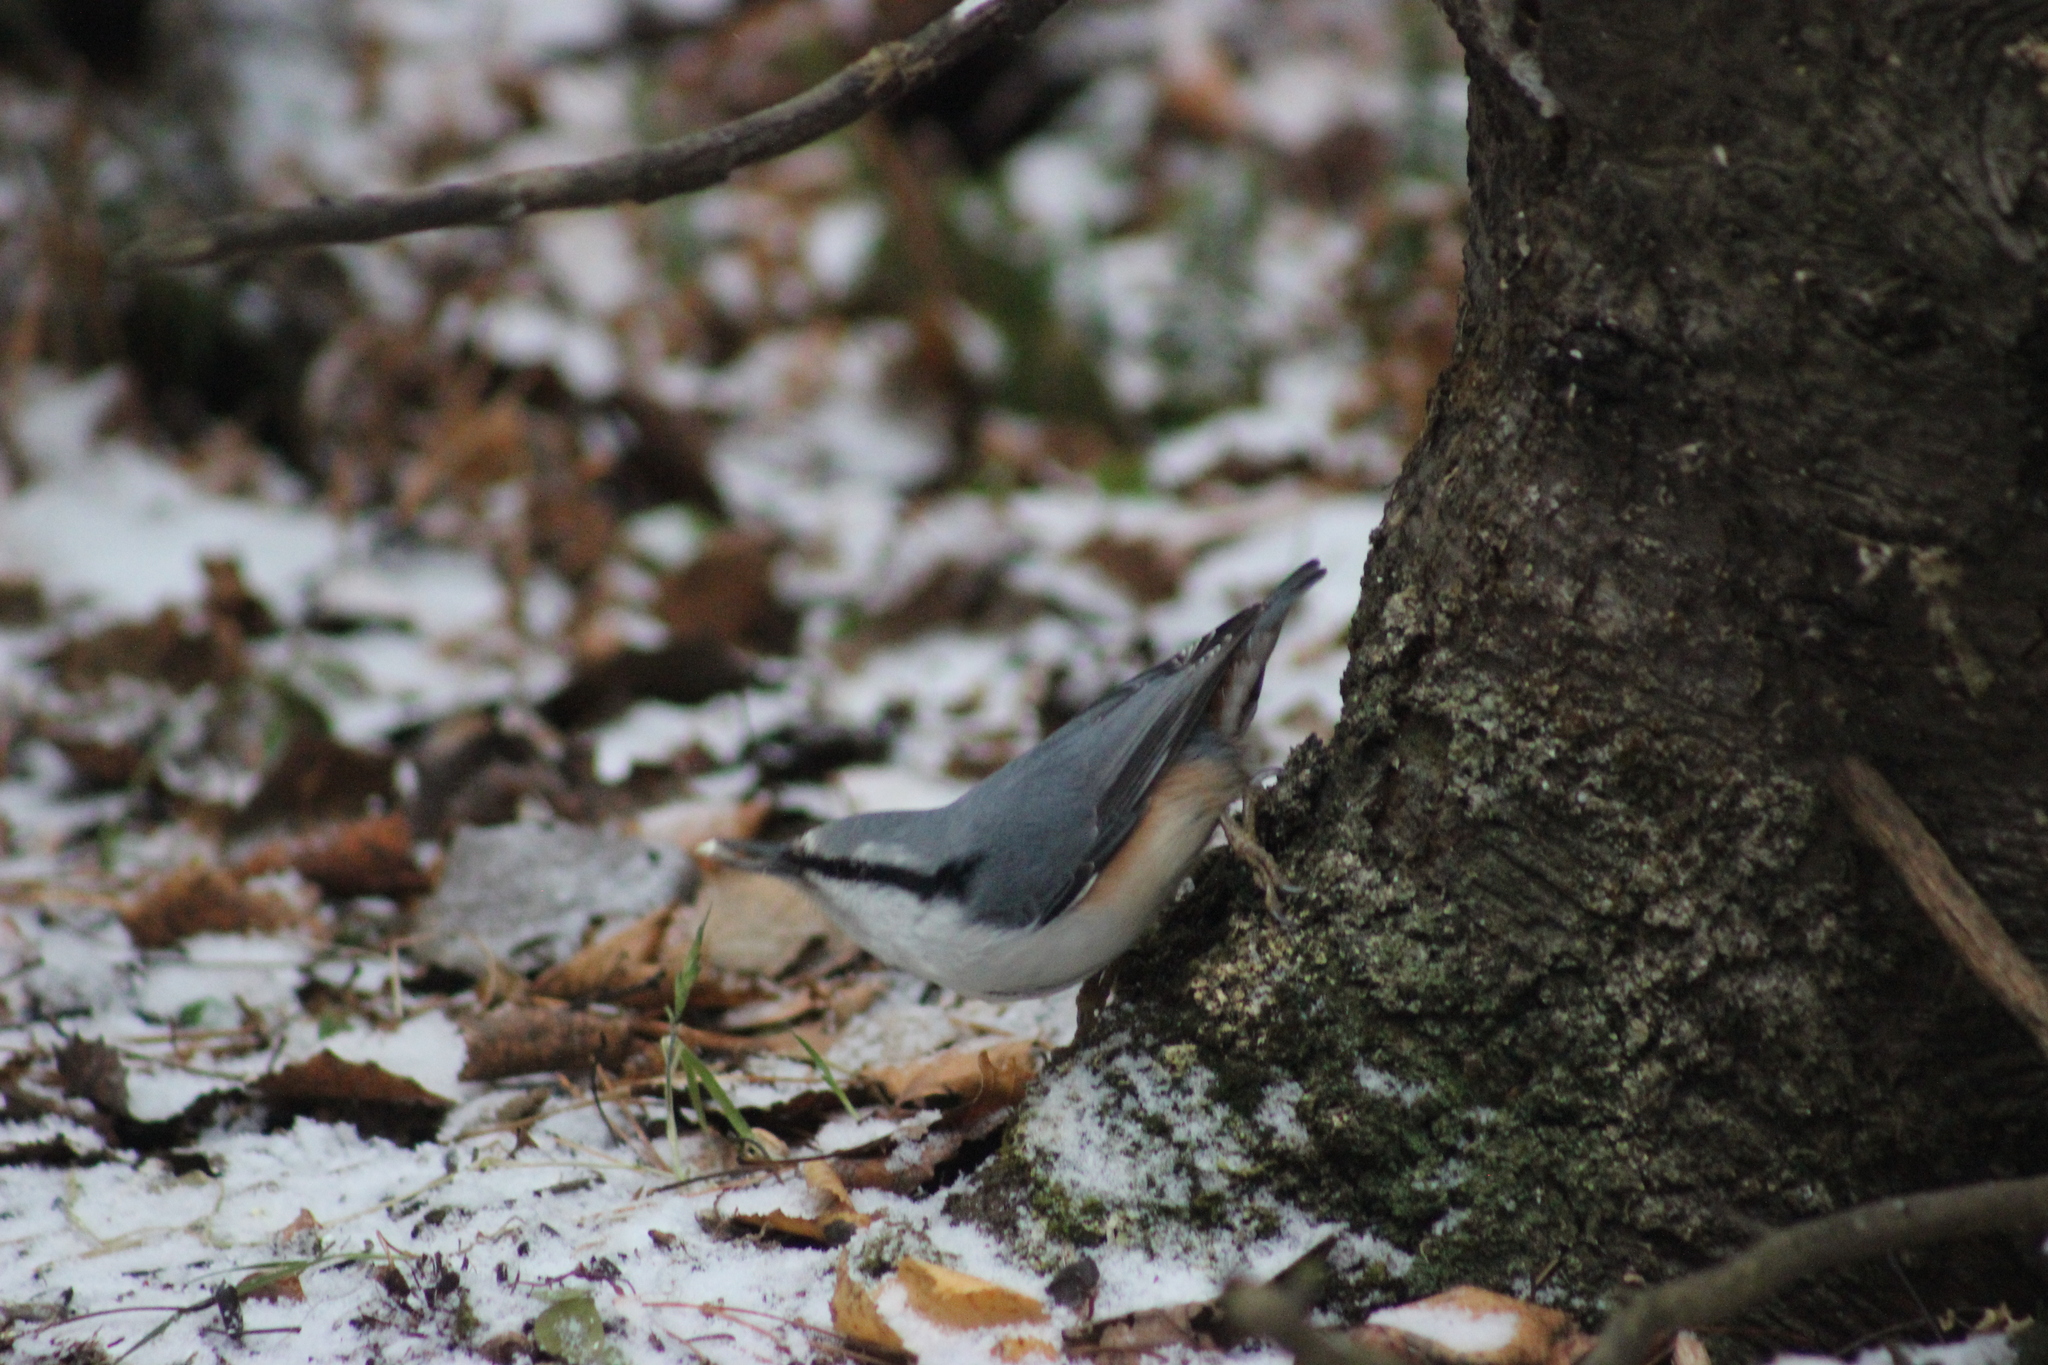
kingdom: Animalia
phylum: Chordata
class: Aves
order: Passeriformes
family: Sittidae
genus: Sitta
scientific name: Sitta europaea
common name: Eurasian nuthatch
